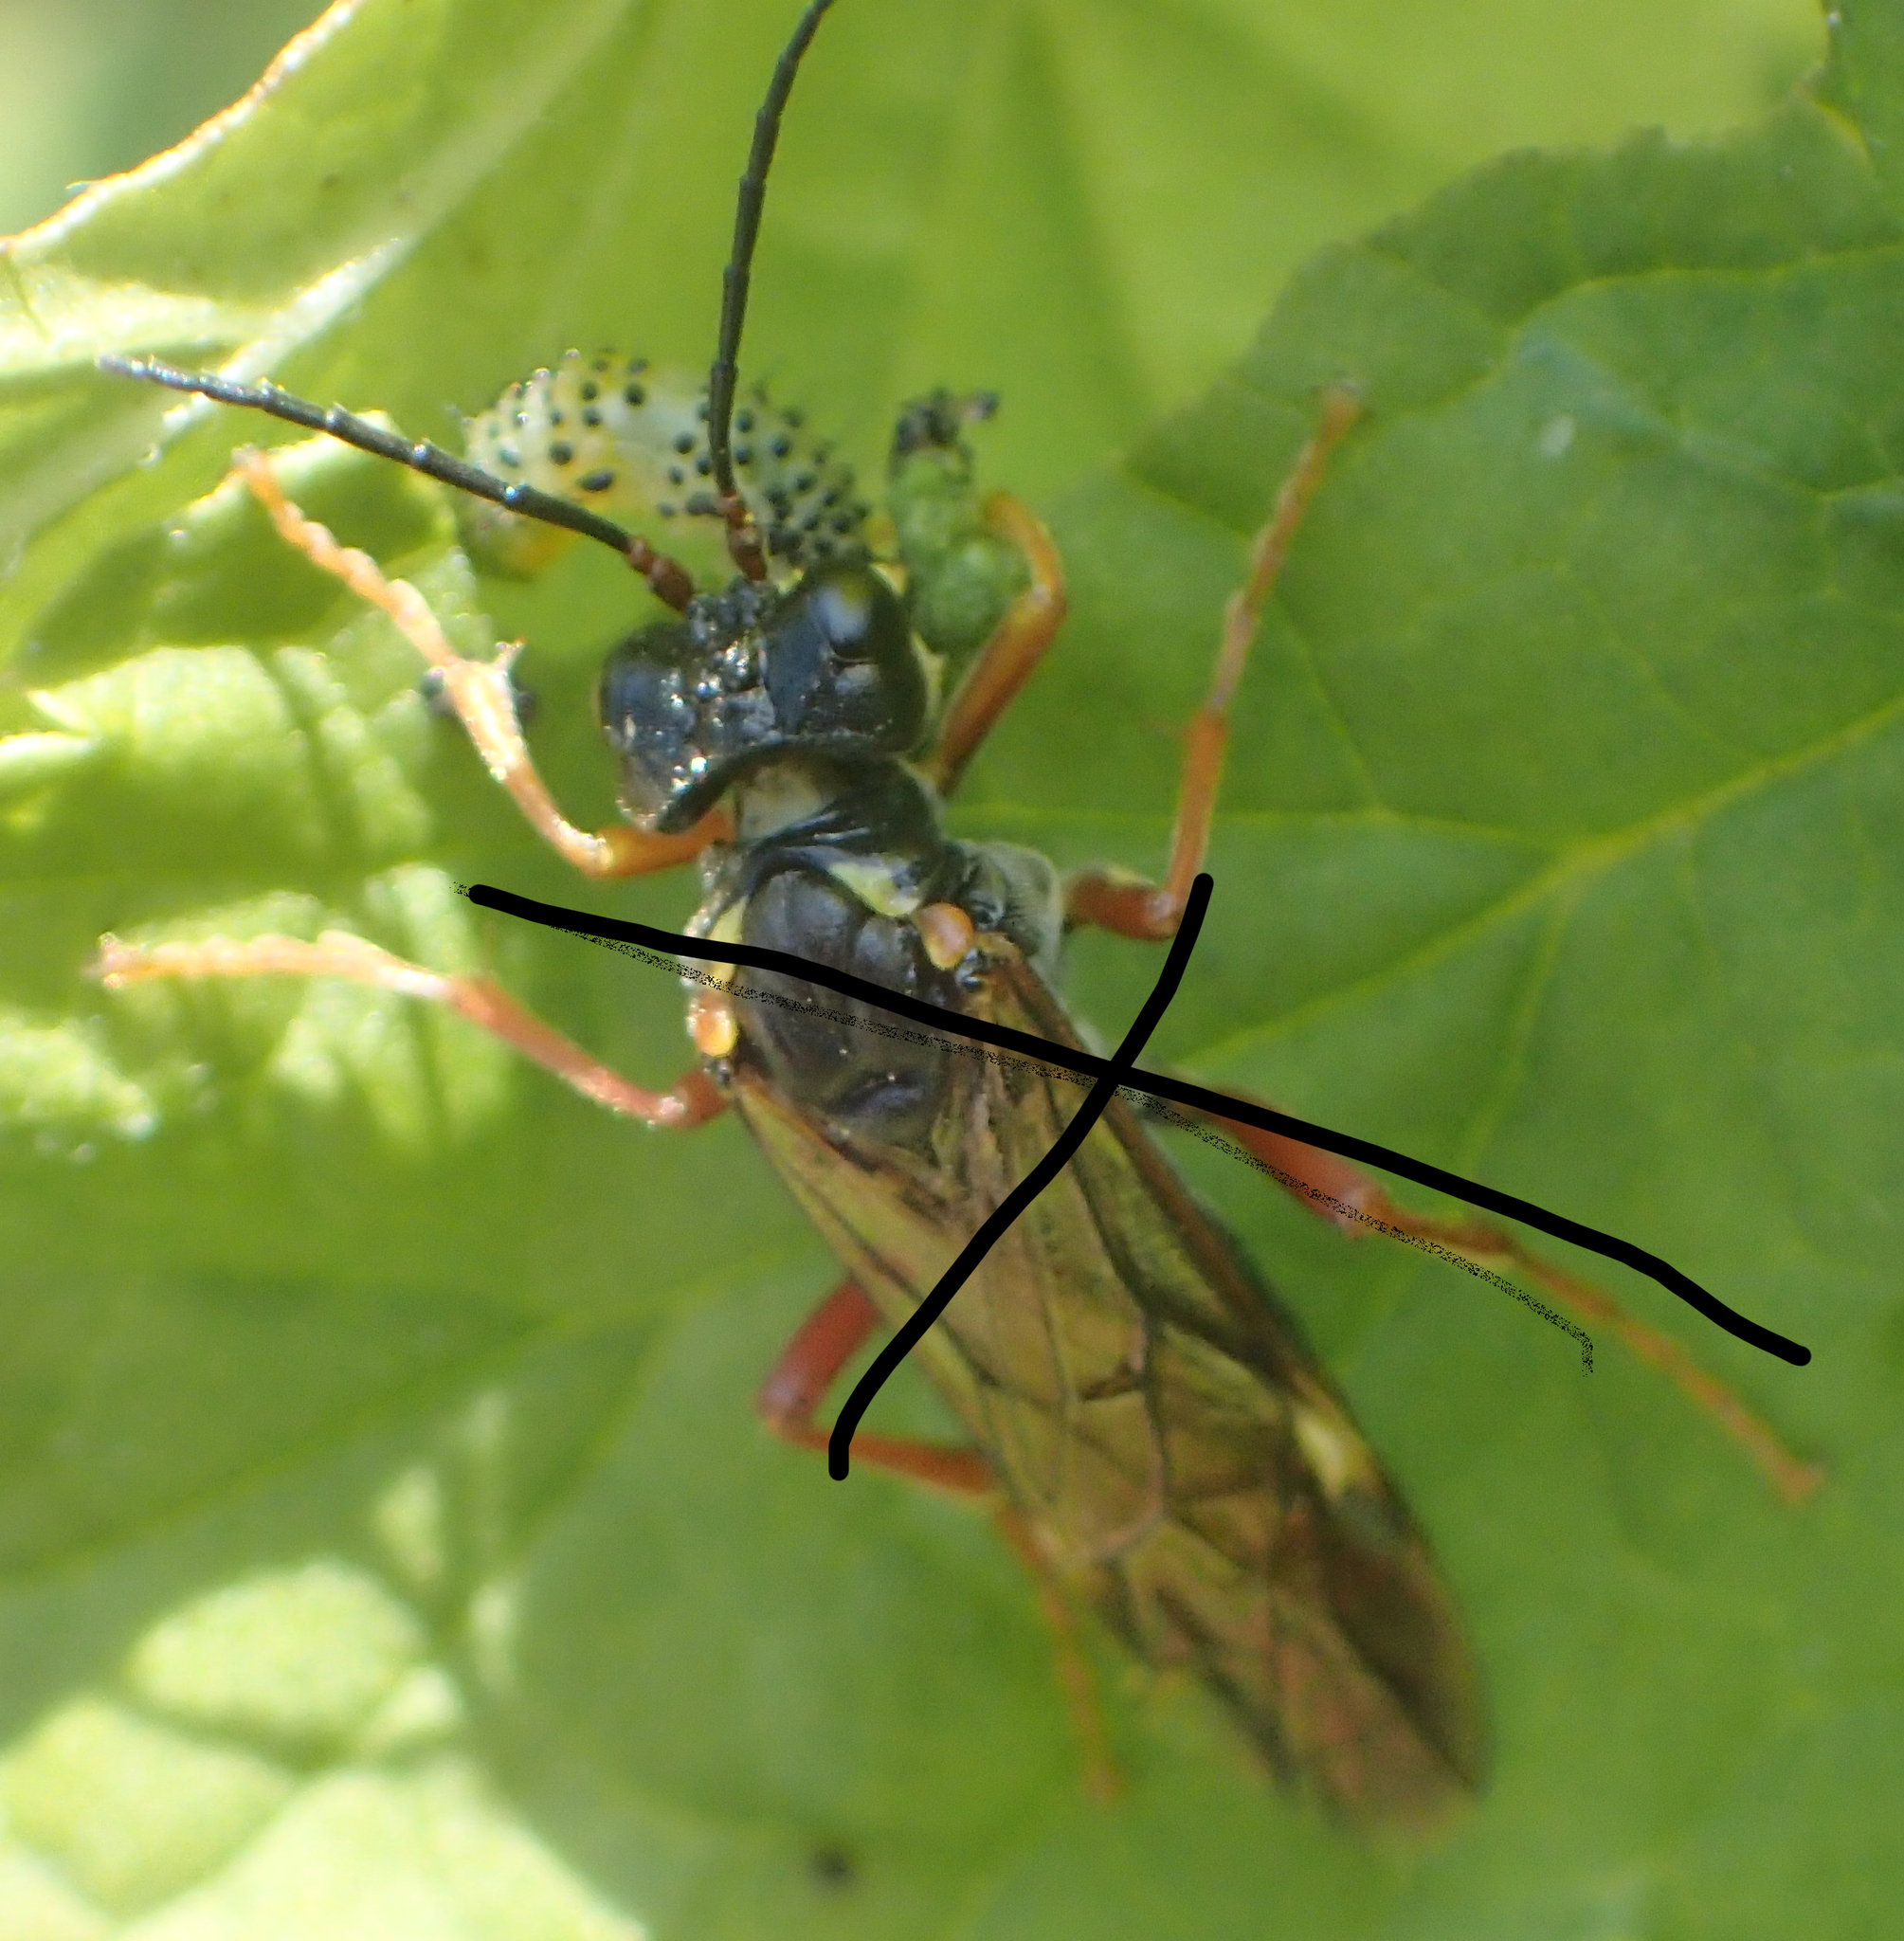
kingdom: Animalia
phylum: Arthropoda
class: Insecta
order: Hymenoptera
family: Tenthredinidae
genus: Nematus
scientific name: Nematus ribesii
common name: Imported currantworm
